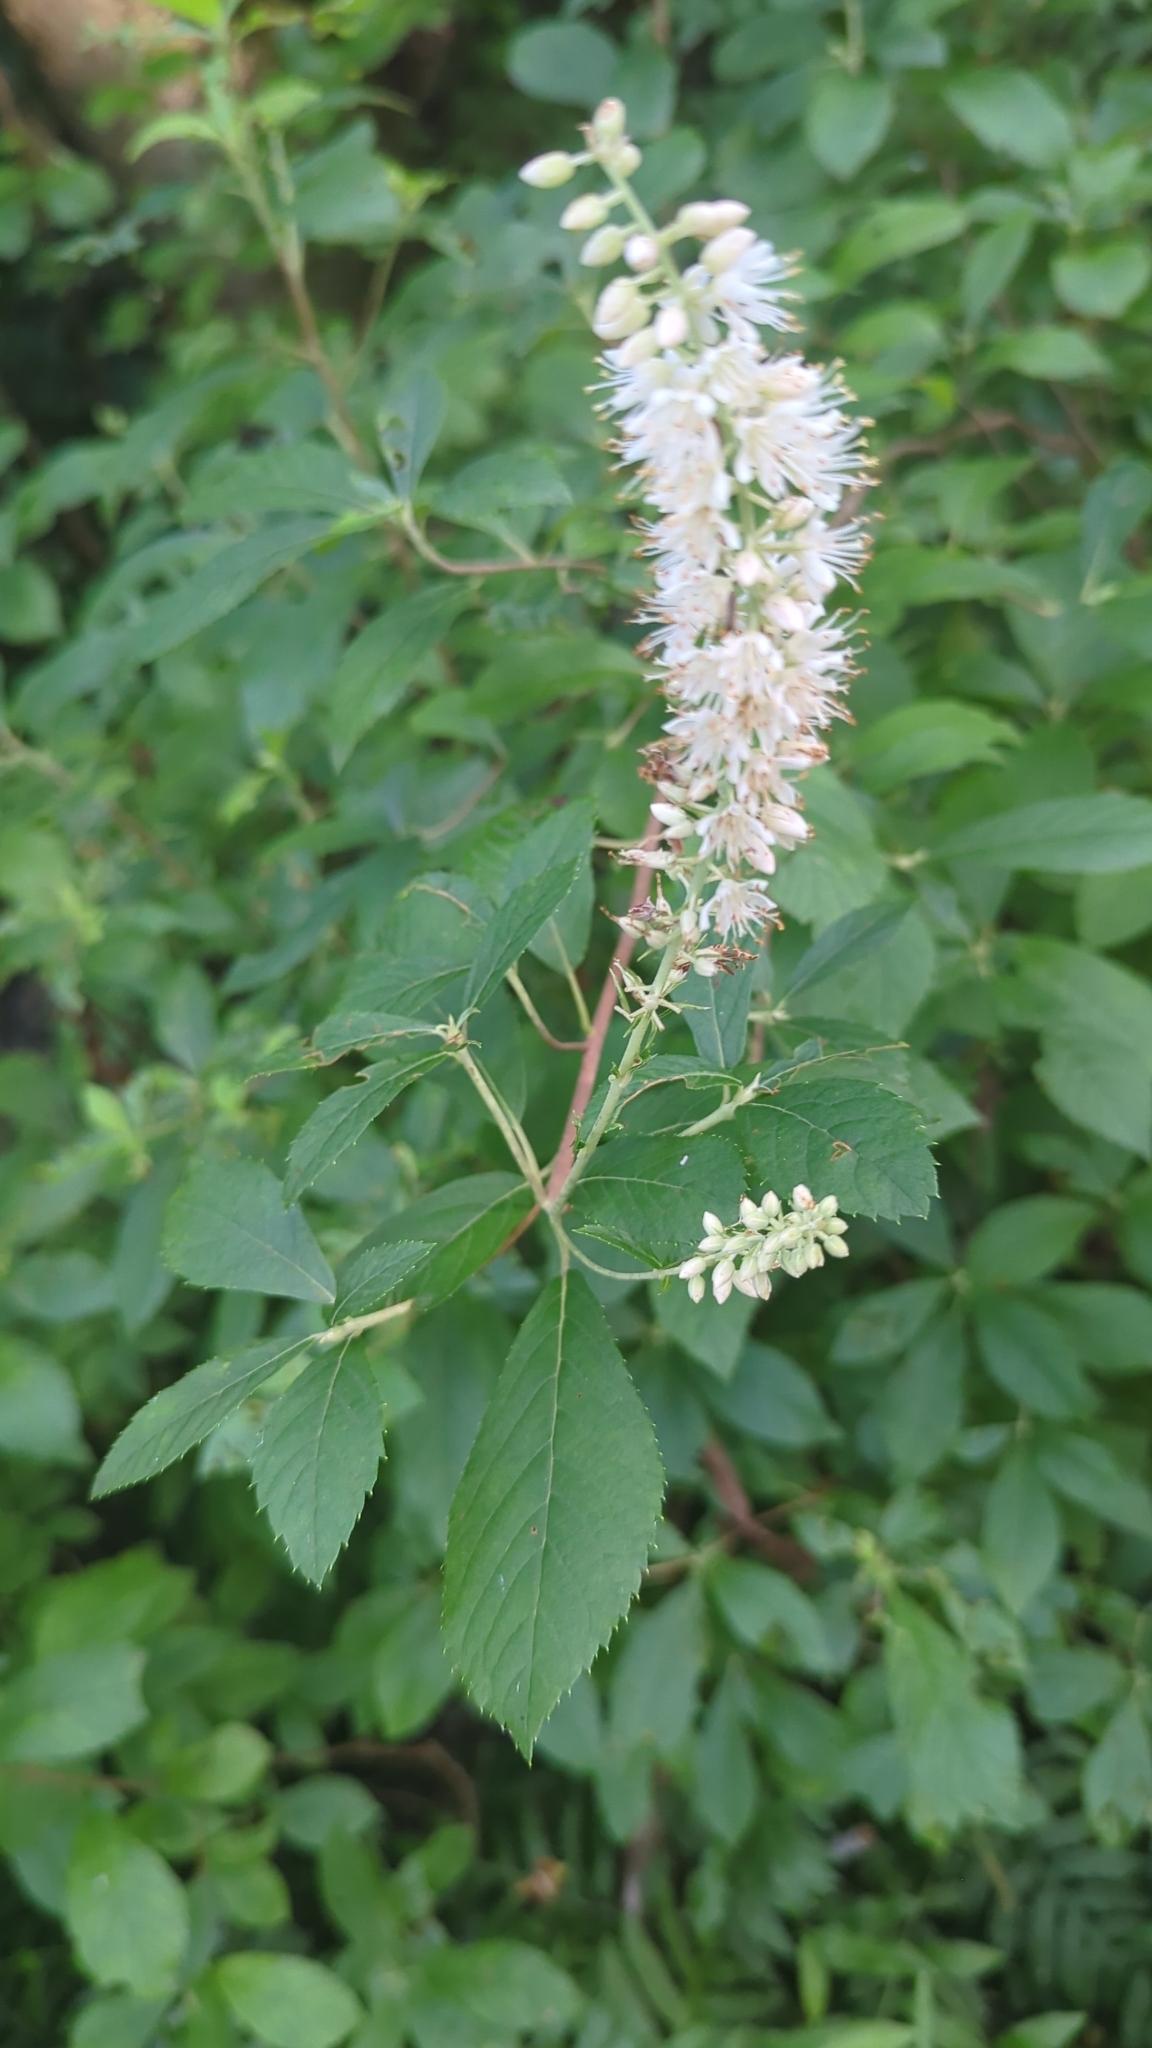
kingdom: Plantae
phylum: Tracheophyta
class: Magnoliopsida
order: Ericales
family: Clethraceae
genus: Clethra
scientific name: Clethra alnifolia
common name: Sweet pepperbush
